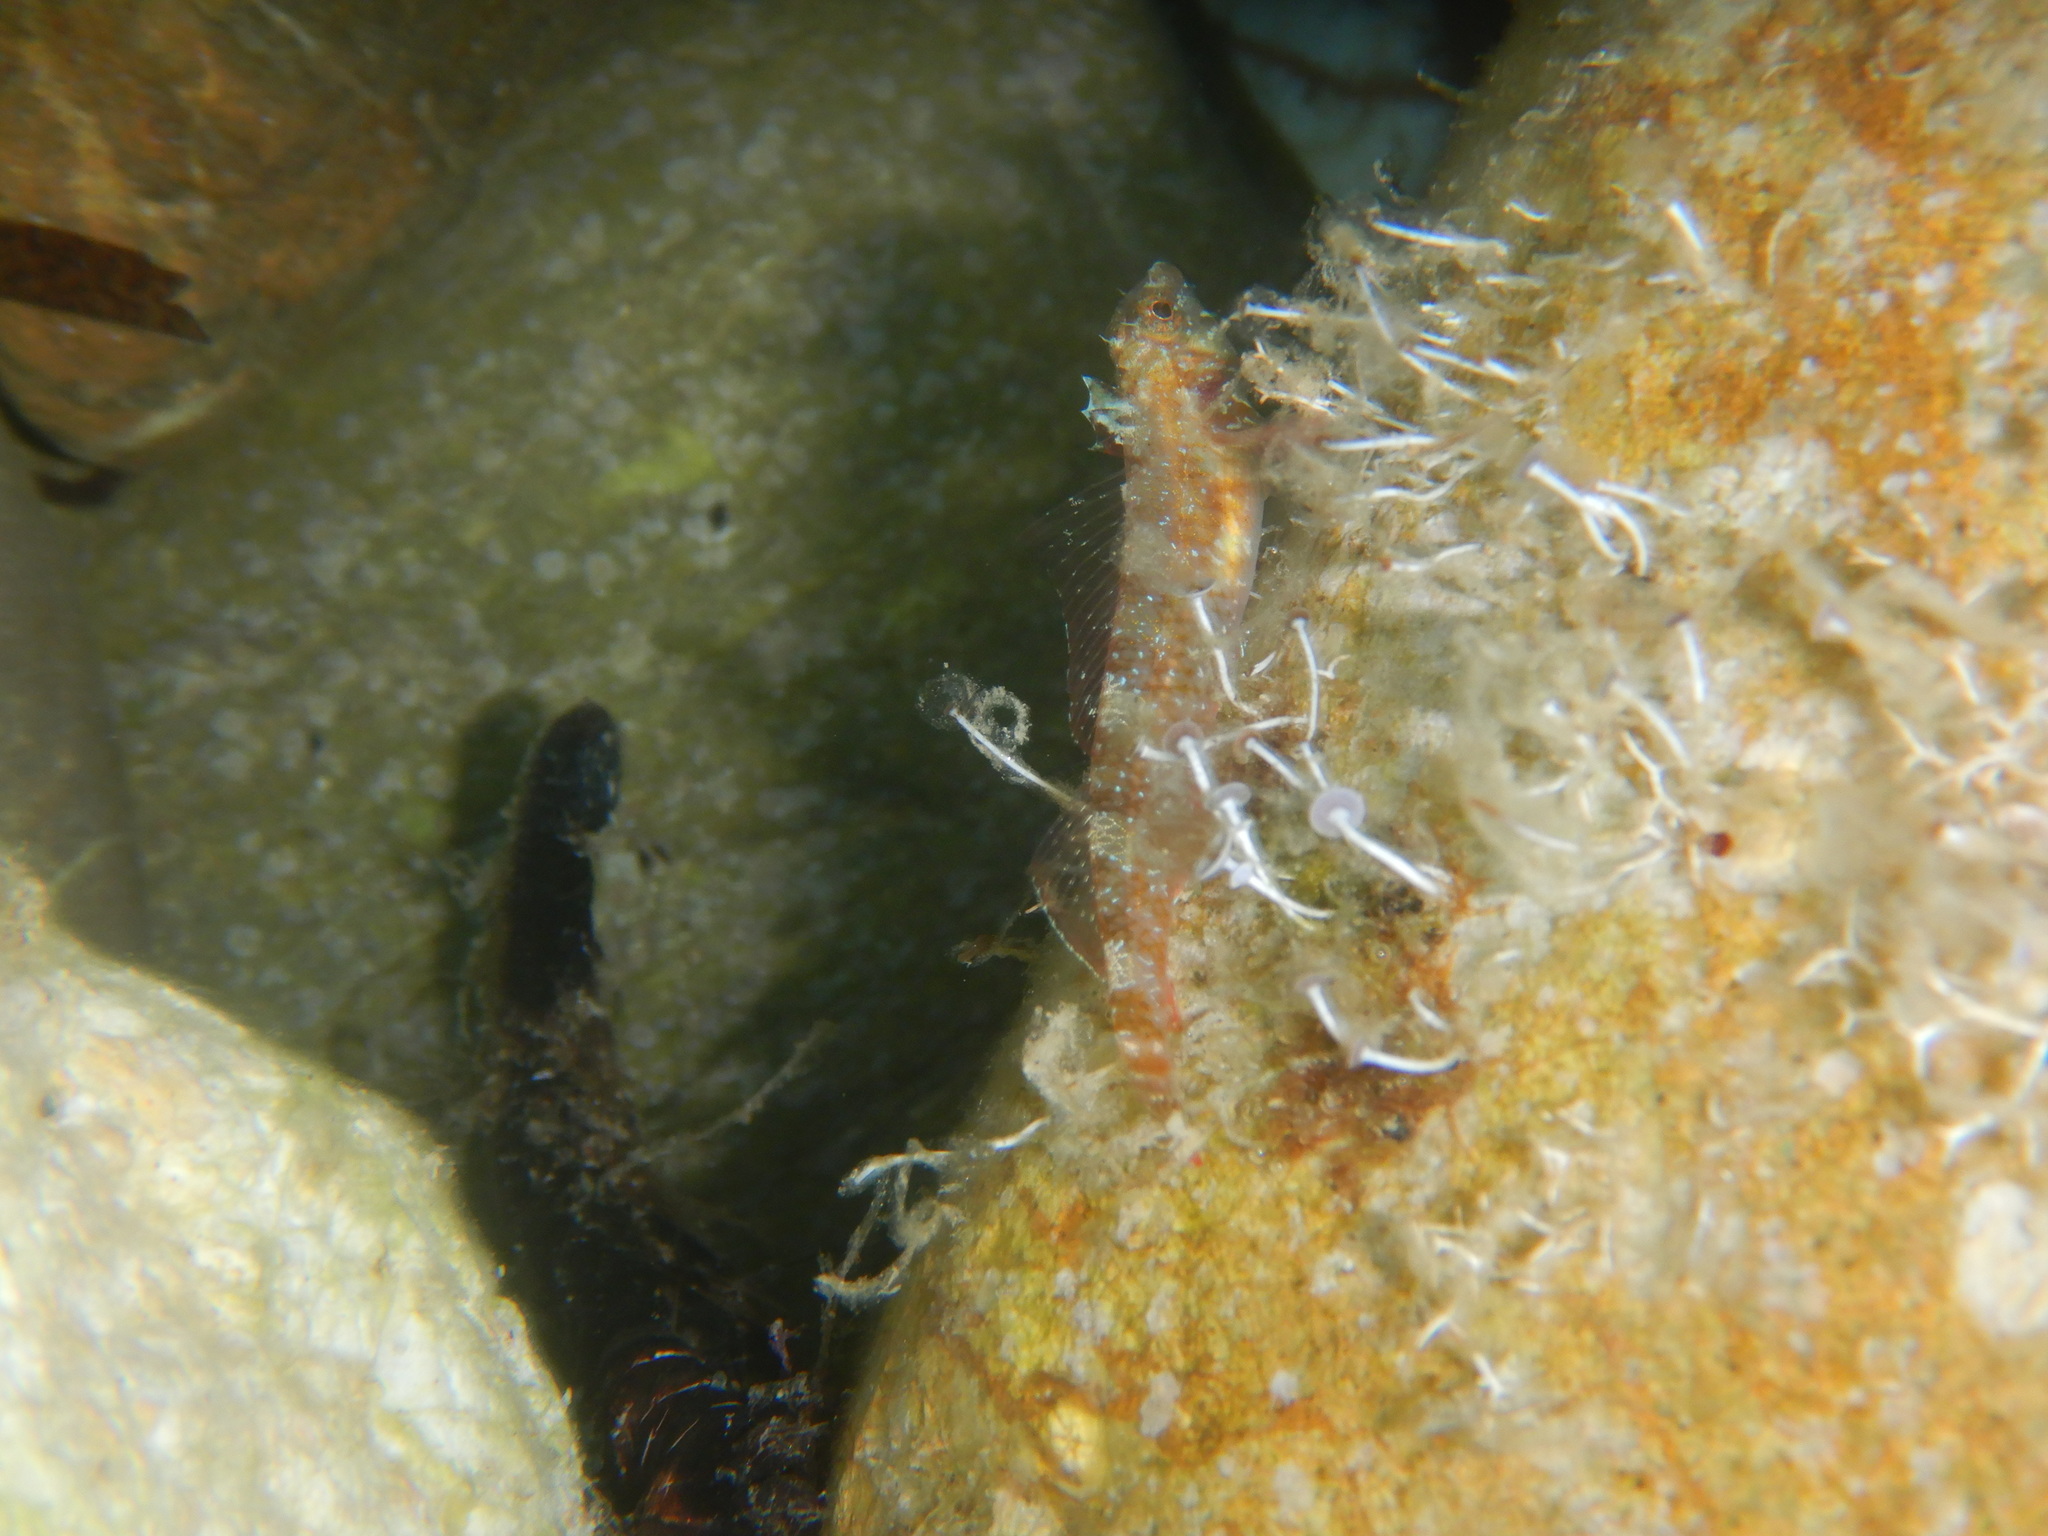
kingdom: Animalia
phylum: Chordata
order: Perciformes
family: Tripterygiidae
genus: Tripterygion
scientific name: Tripterygion tripteronotum
